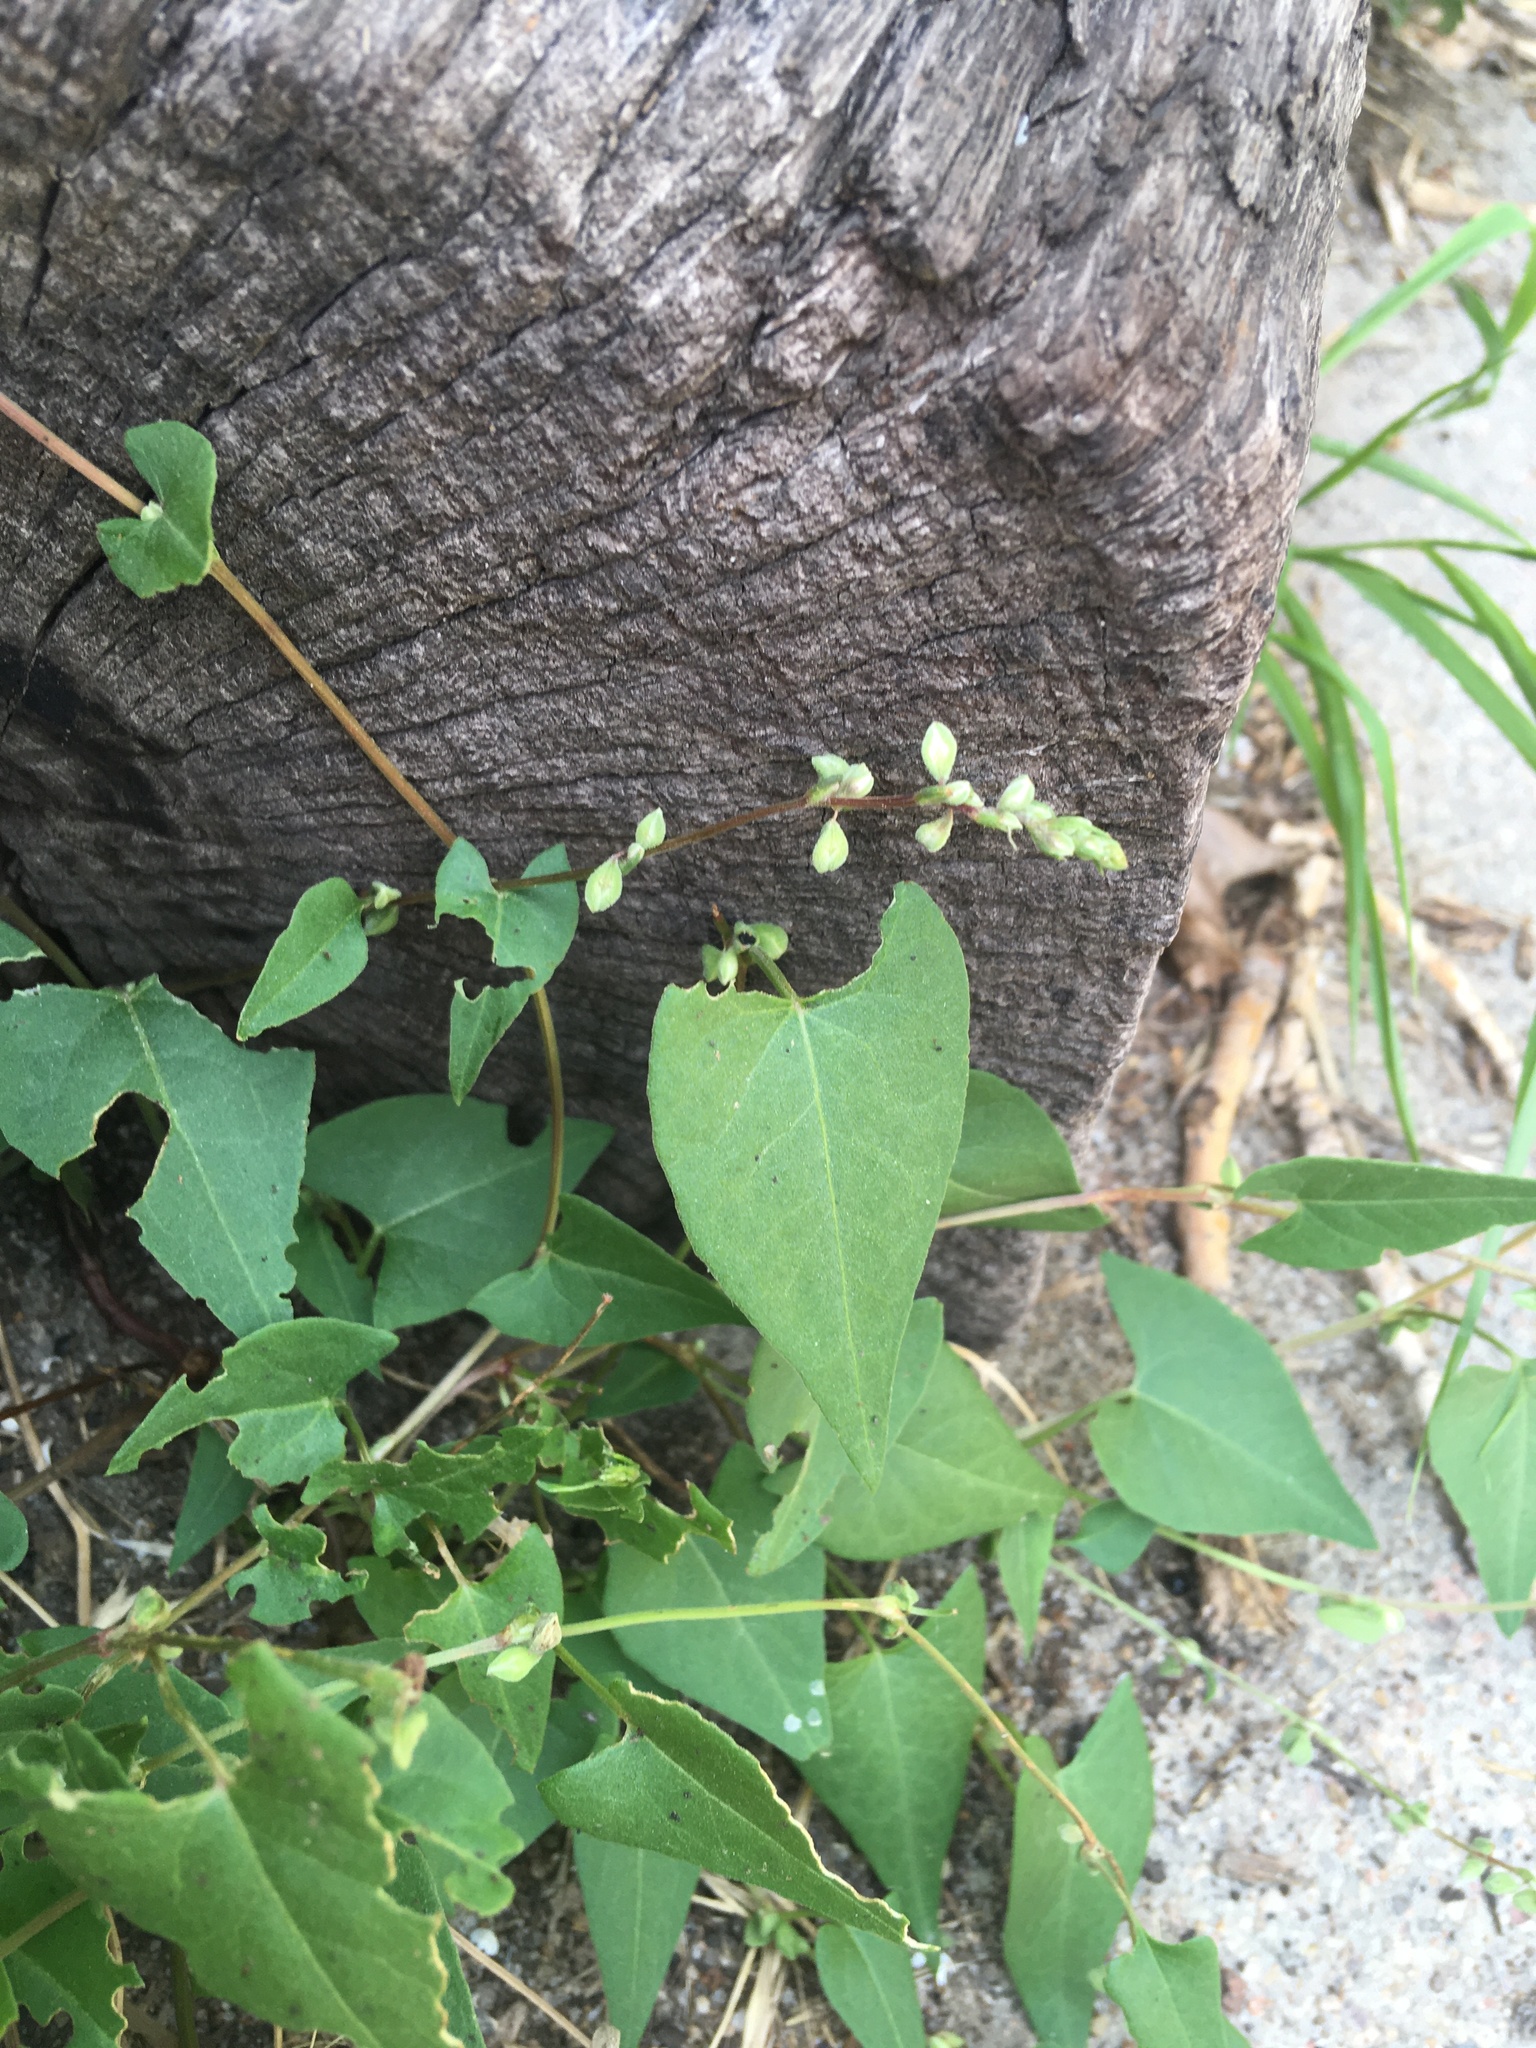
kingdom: Plantae
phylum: Tracheophyta
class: Magnoliopsida
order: Caryophyllales
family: Polygonaceae
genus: Fallopia
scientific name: Fallopia convolvulus
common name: Black bindweed
